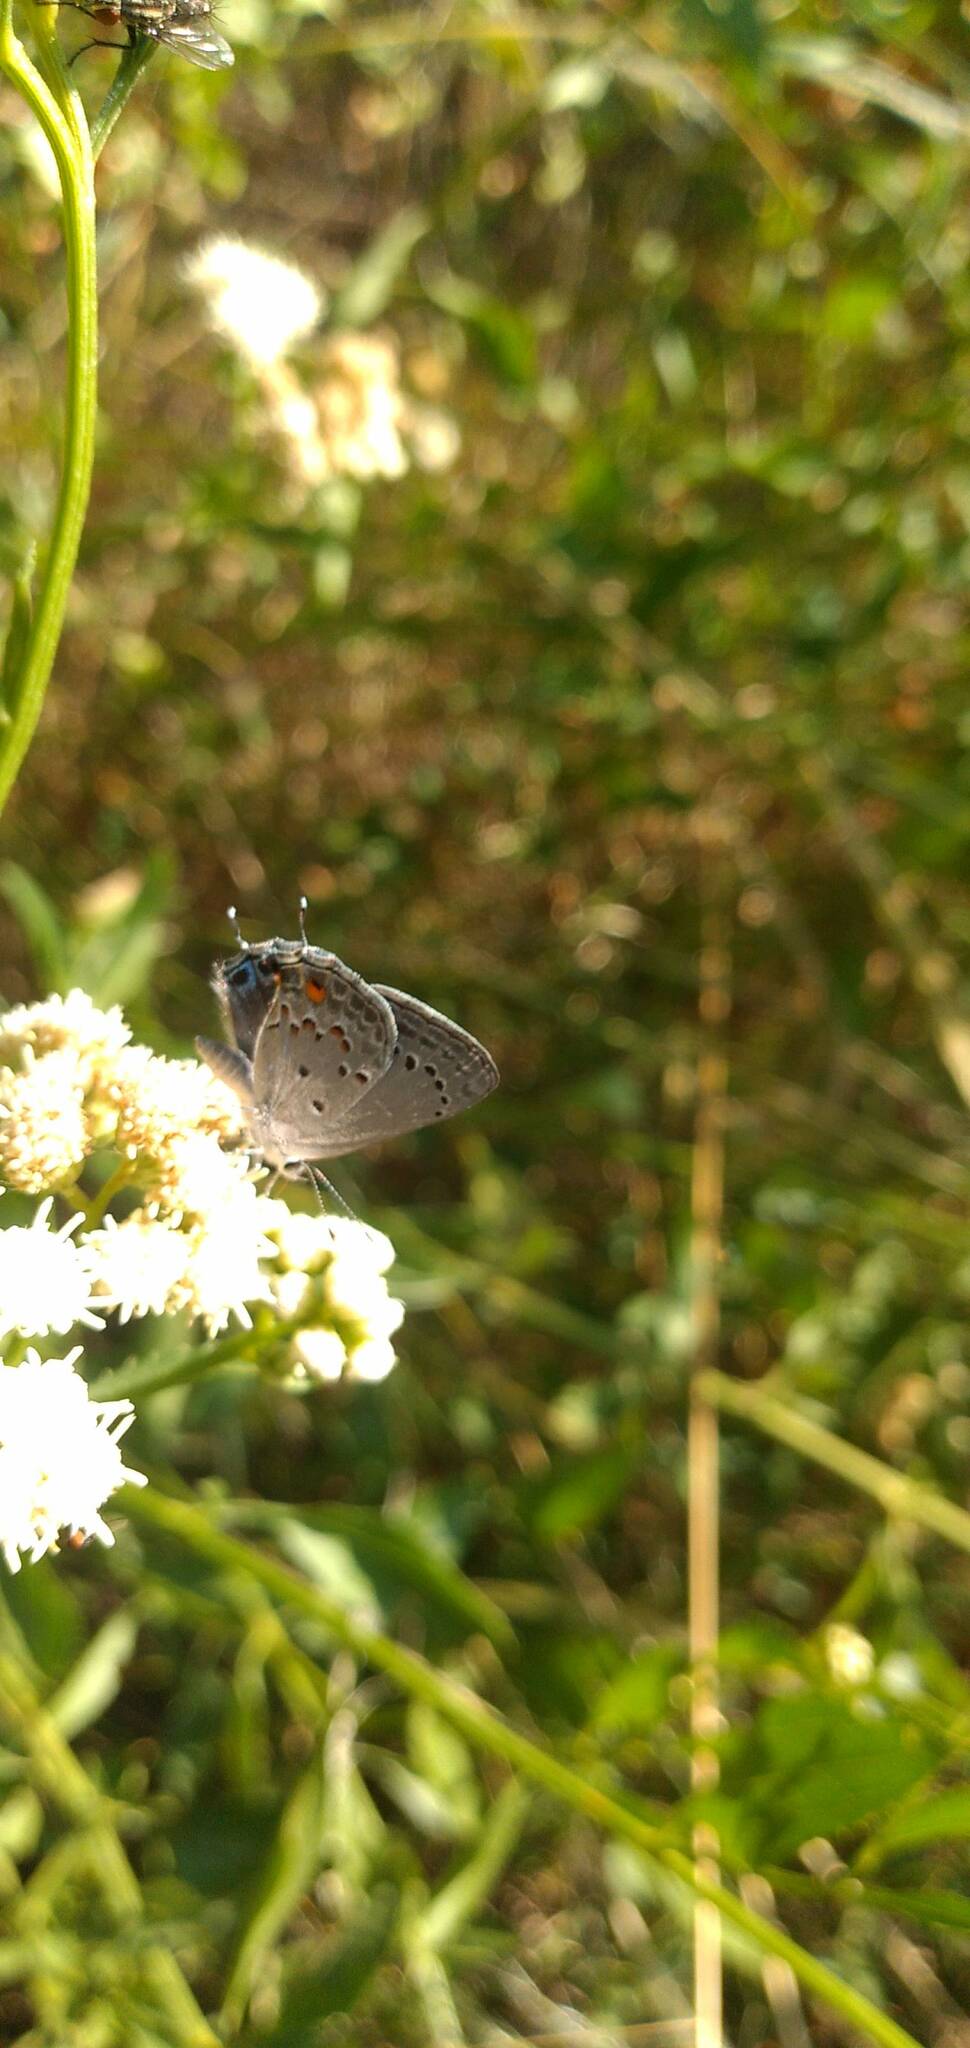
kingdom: Animalia
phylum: Arthropoda
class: Insecta
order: Lepidoptera
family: Lycaenidae
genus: Strymon
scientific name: Strymon eurytulus
